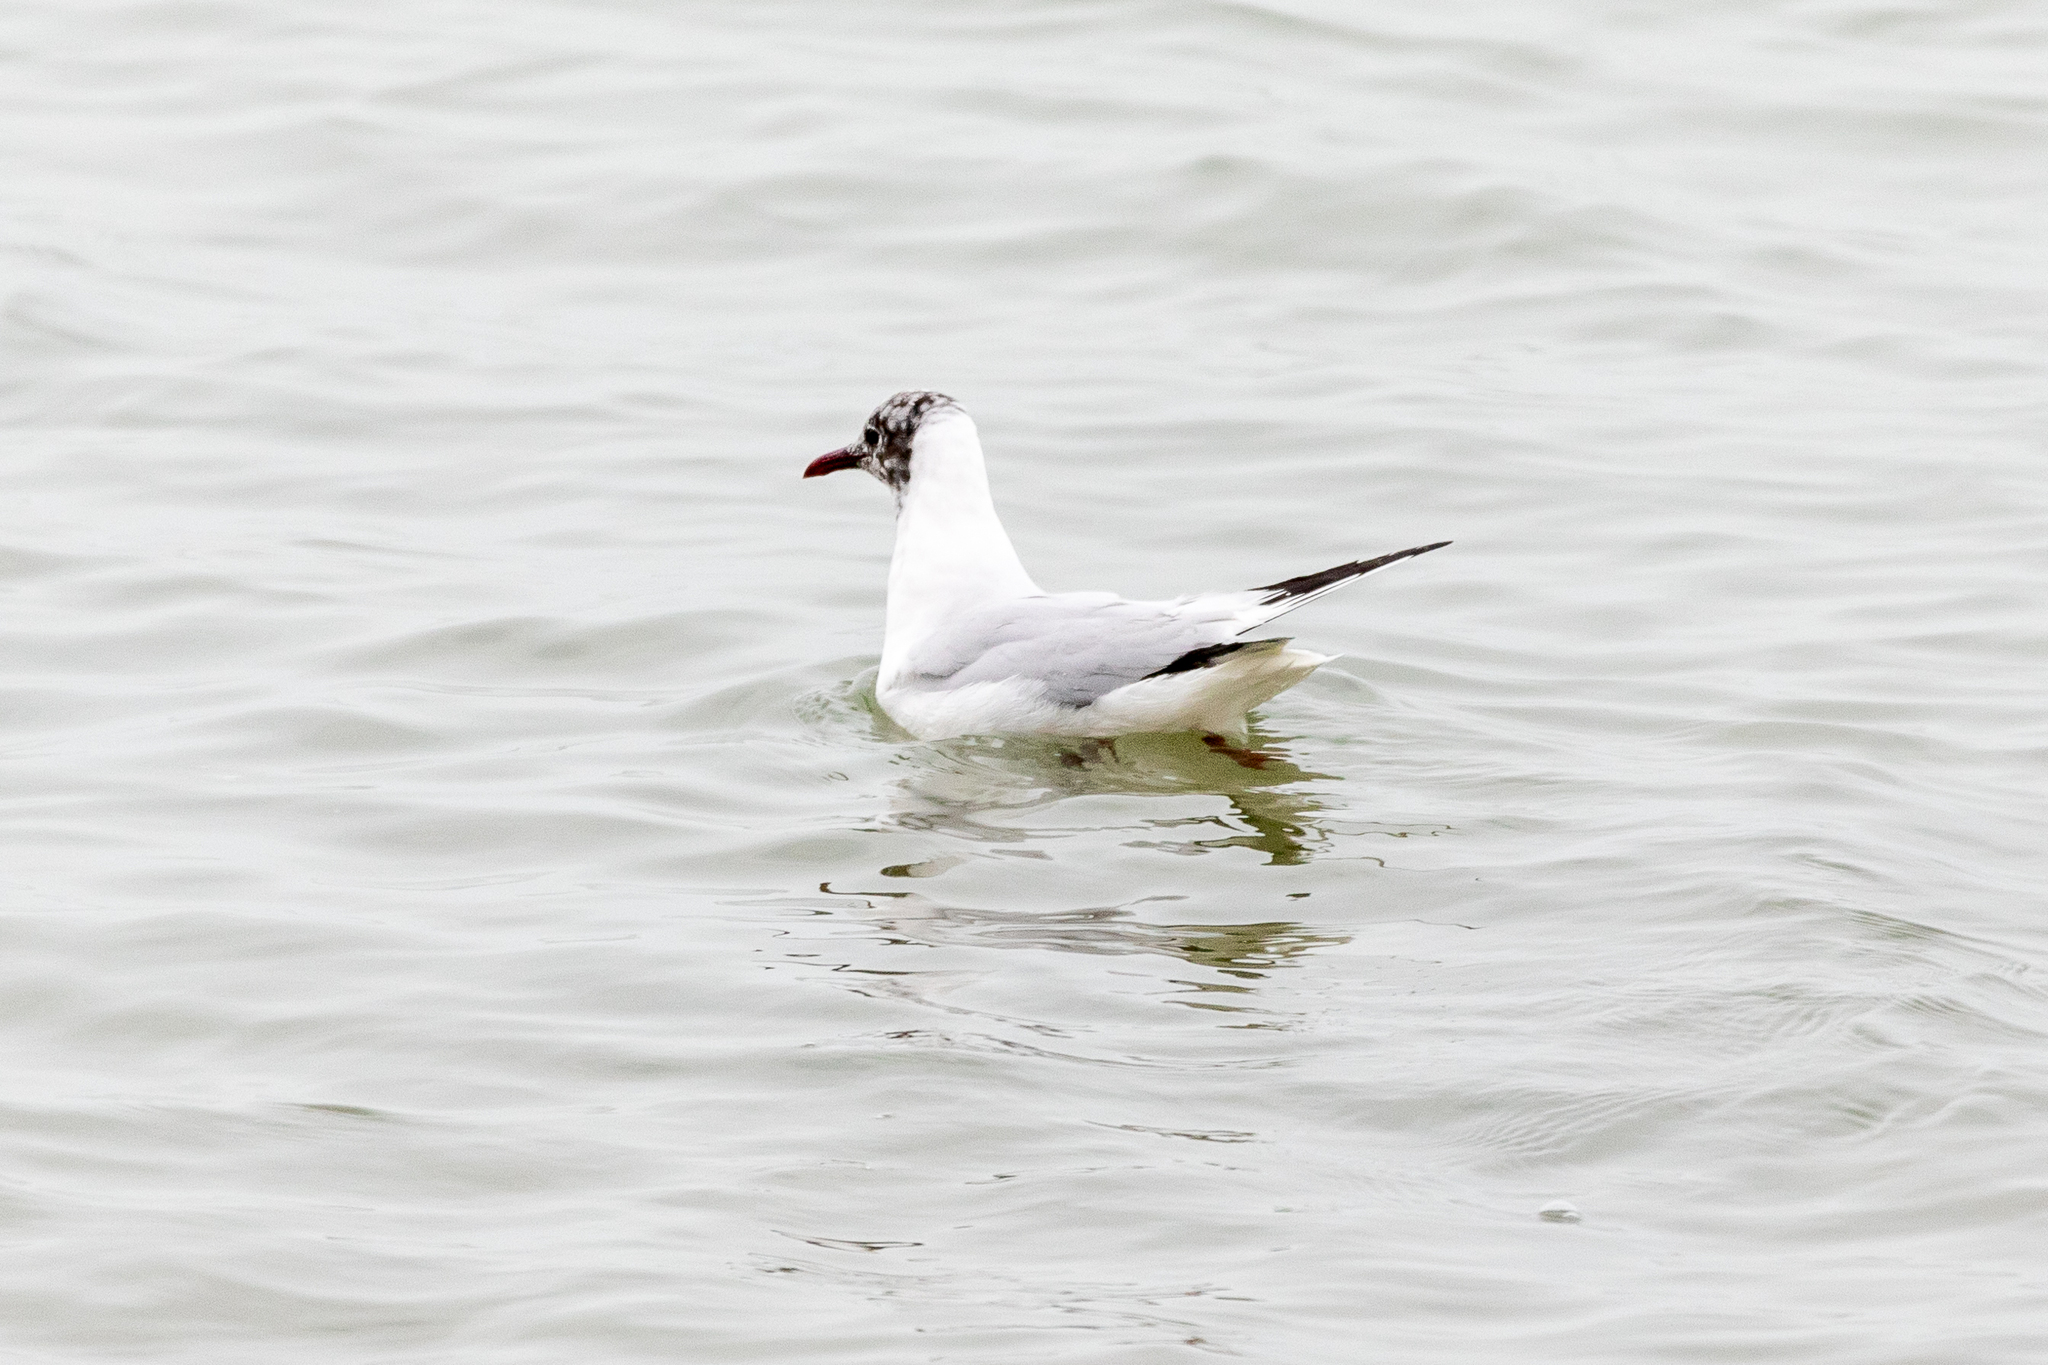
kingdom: Animalia
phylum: Chordata
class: Aves
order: Charadriiformes
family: Laridae
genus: Chroicocephalus
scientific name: Chroicocephalus ridibundus
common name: Black-headed gull
